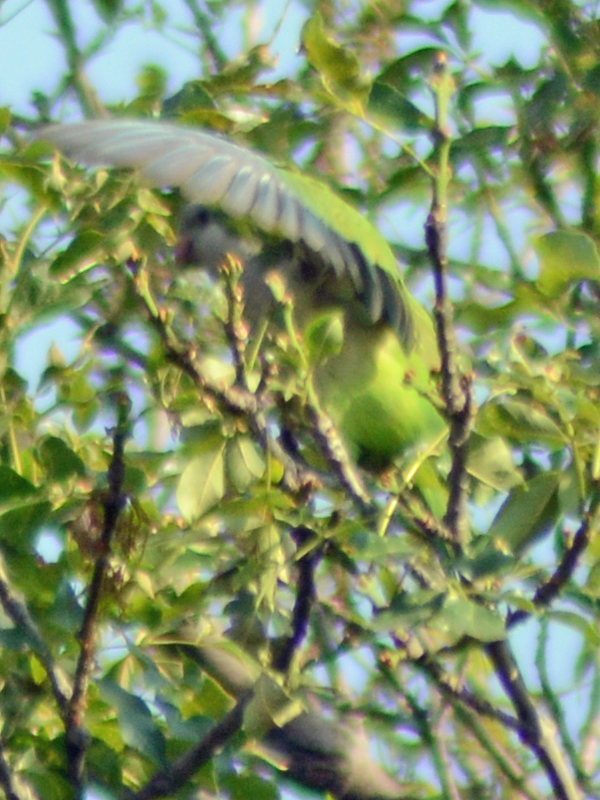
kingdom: Animalia
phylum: Chordata
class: Aves
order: Psittaciformes
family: Psittacidae
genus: Myiopsitta
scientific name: Myiopsitta monachus
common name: Monk parakeet
